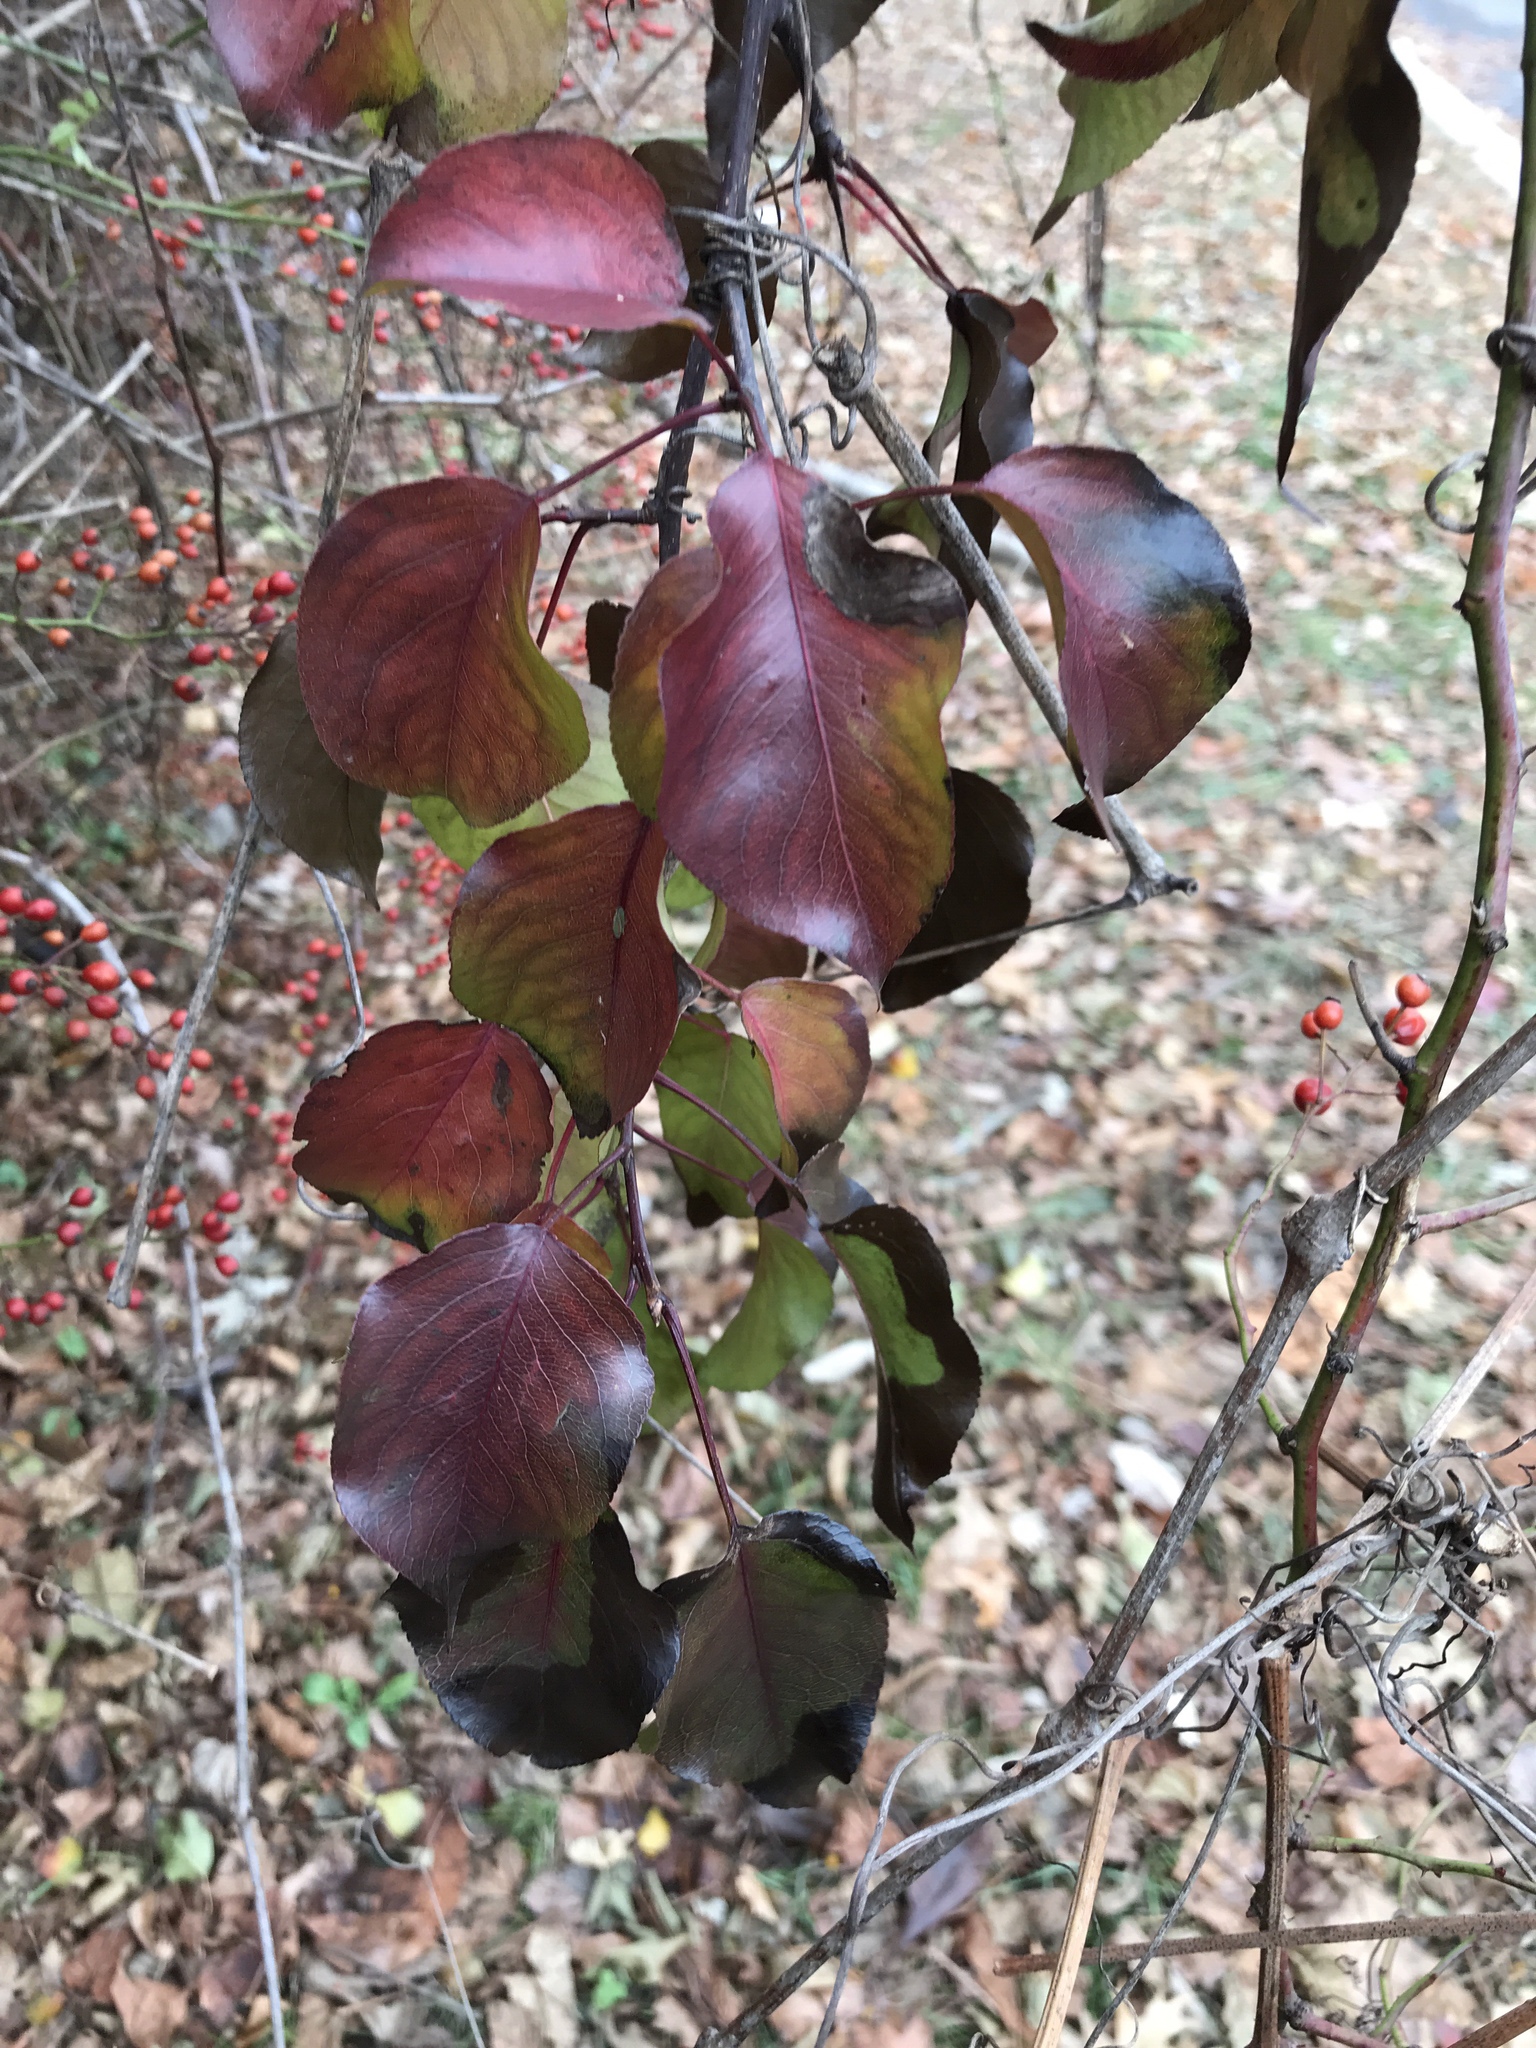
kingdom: Plantae
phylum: Tracheophyta
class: Magnoliopsida
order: Rosales
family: Rosaceae
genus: Pyrus
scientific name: Pyrus calleryana
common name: Callery pear
